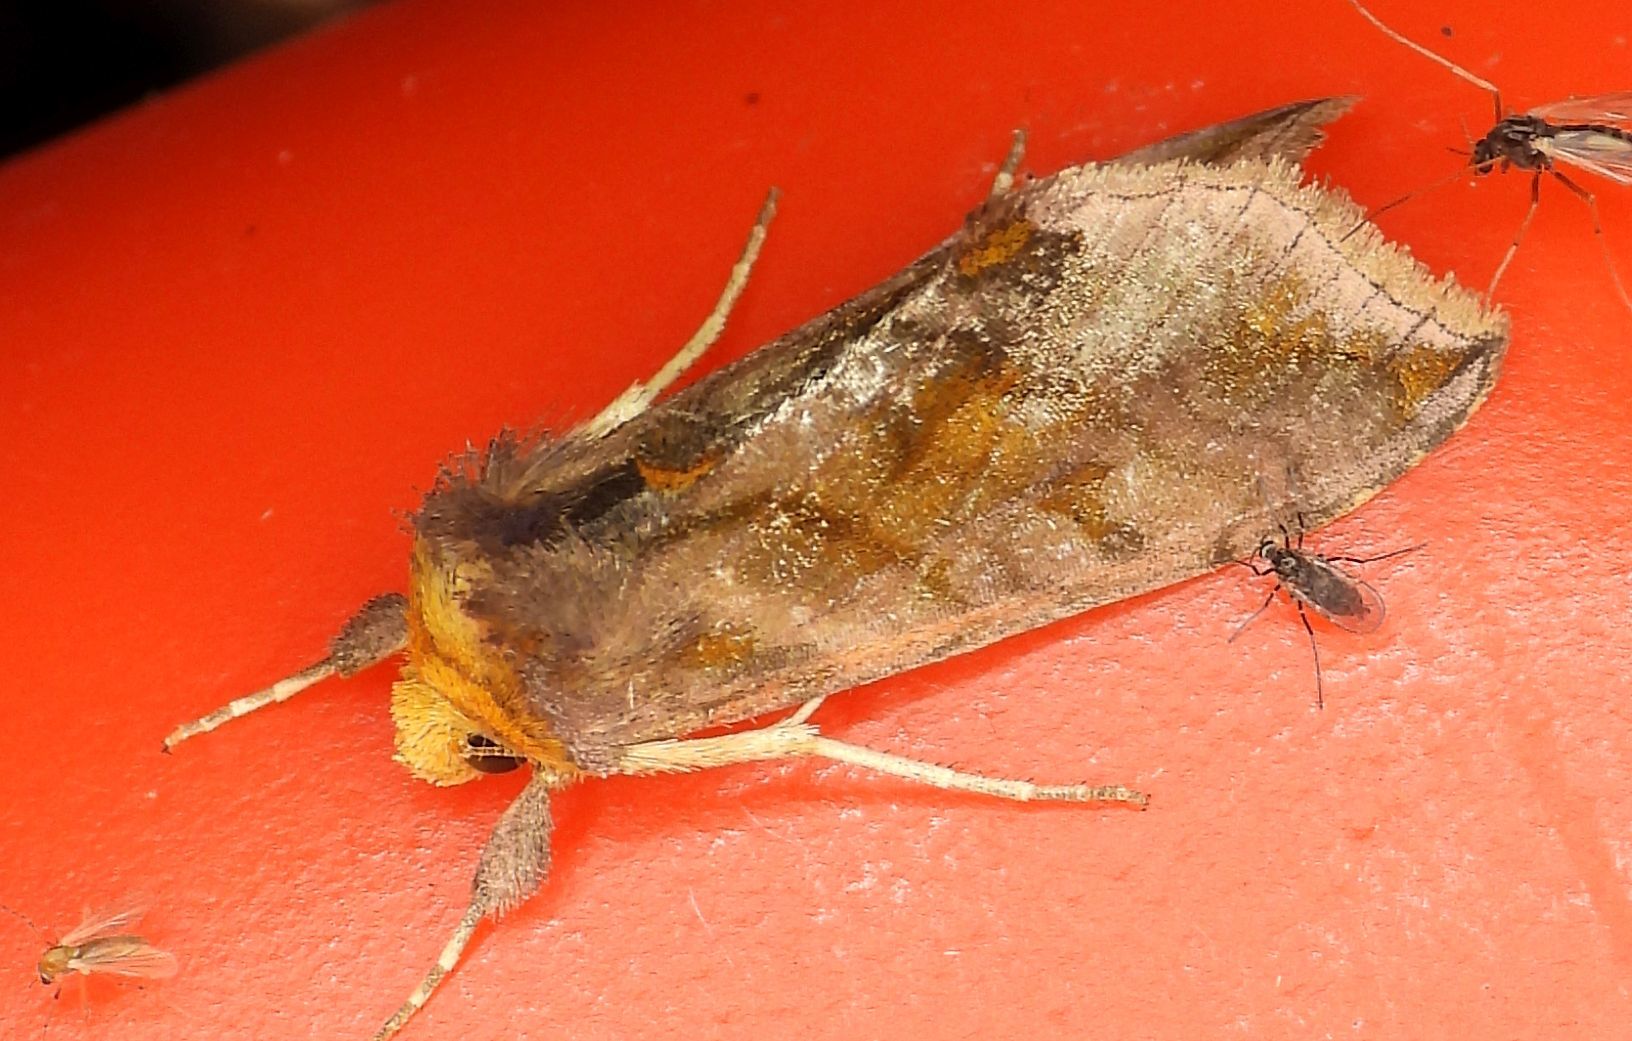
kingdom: Animalia
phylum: Arthropoda
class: Insecta
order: Lepidoptera
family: Noctuidae
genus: Allagrapha
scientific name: Allagrapha aerea
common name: Unspotted looper moth
